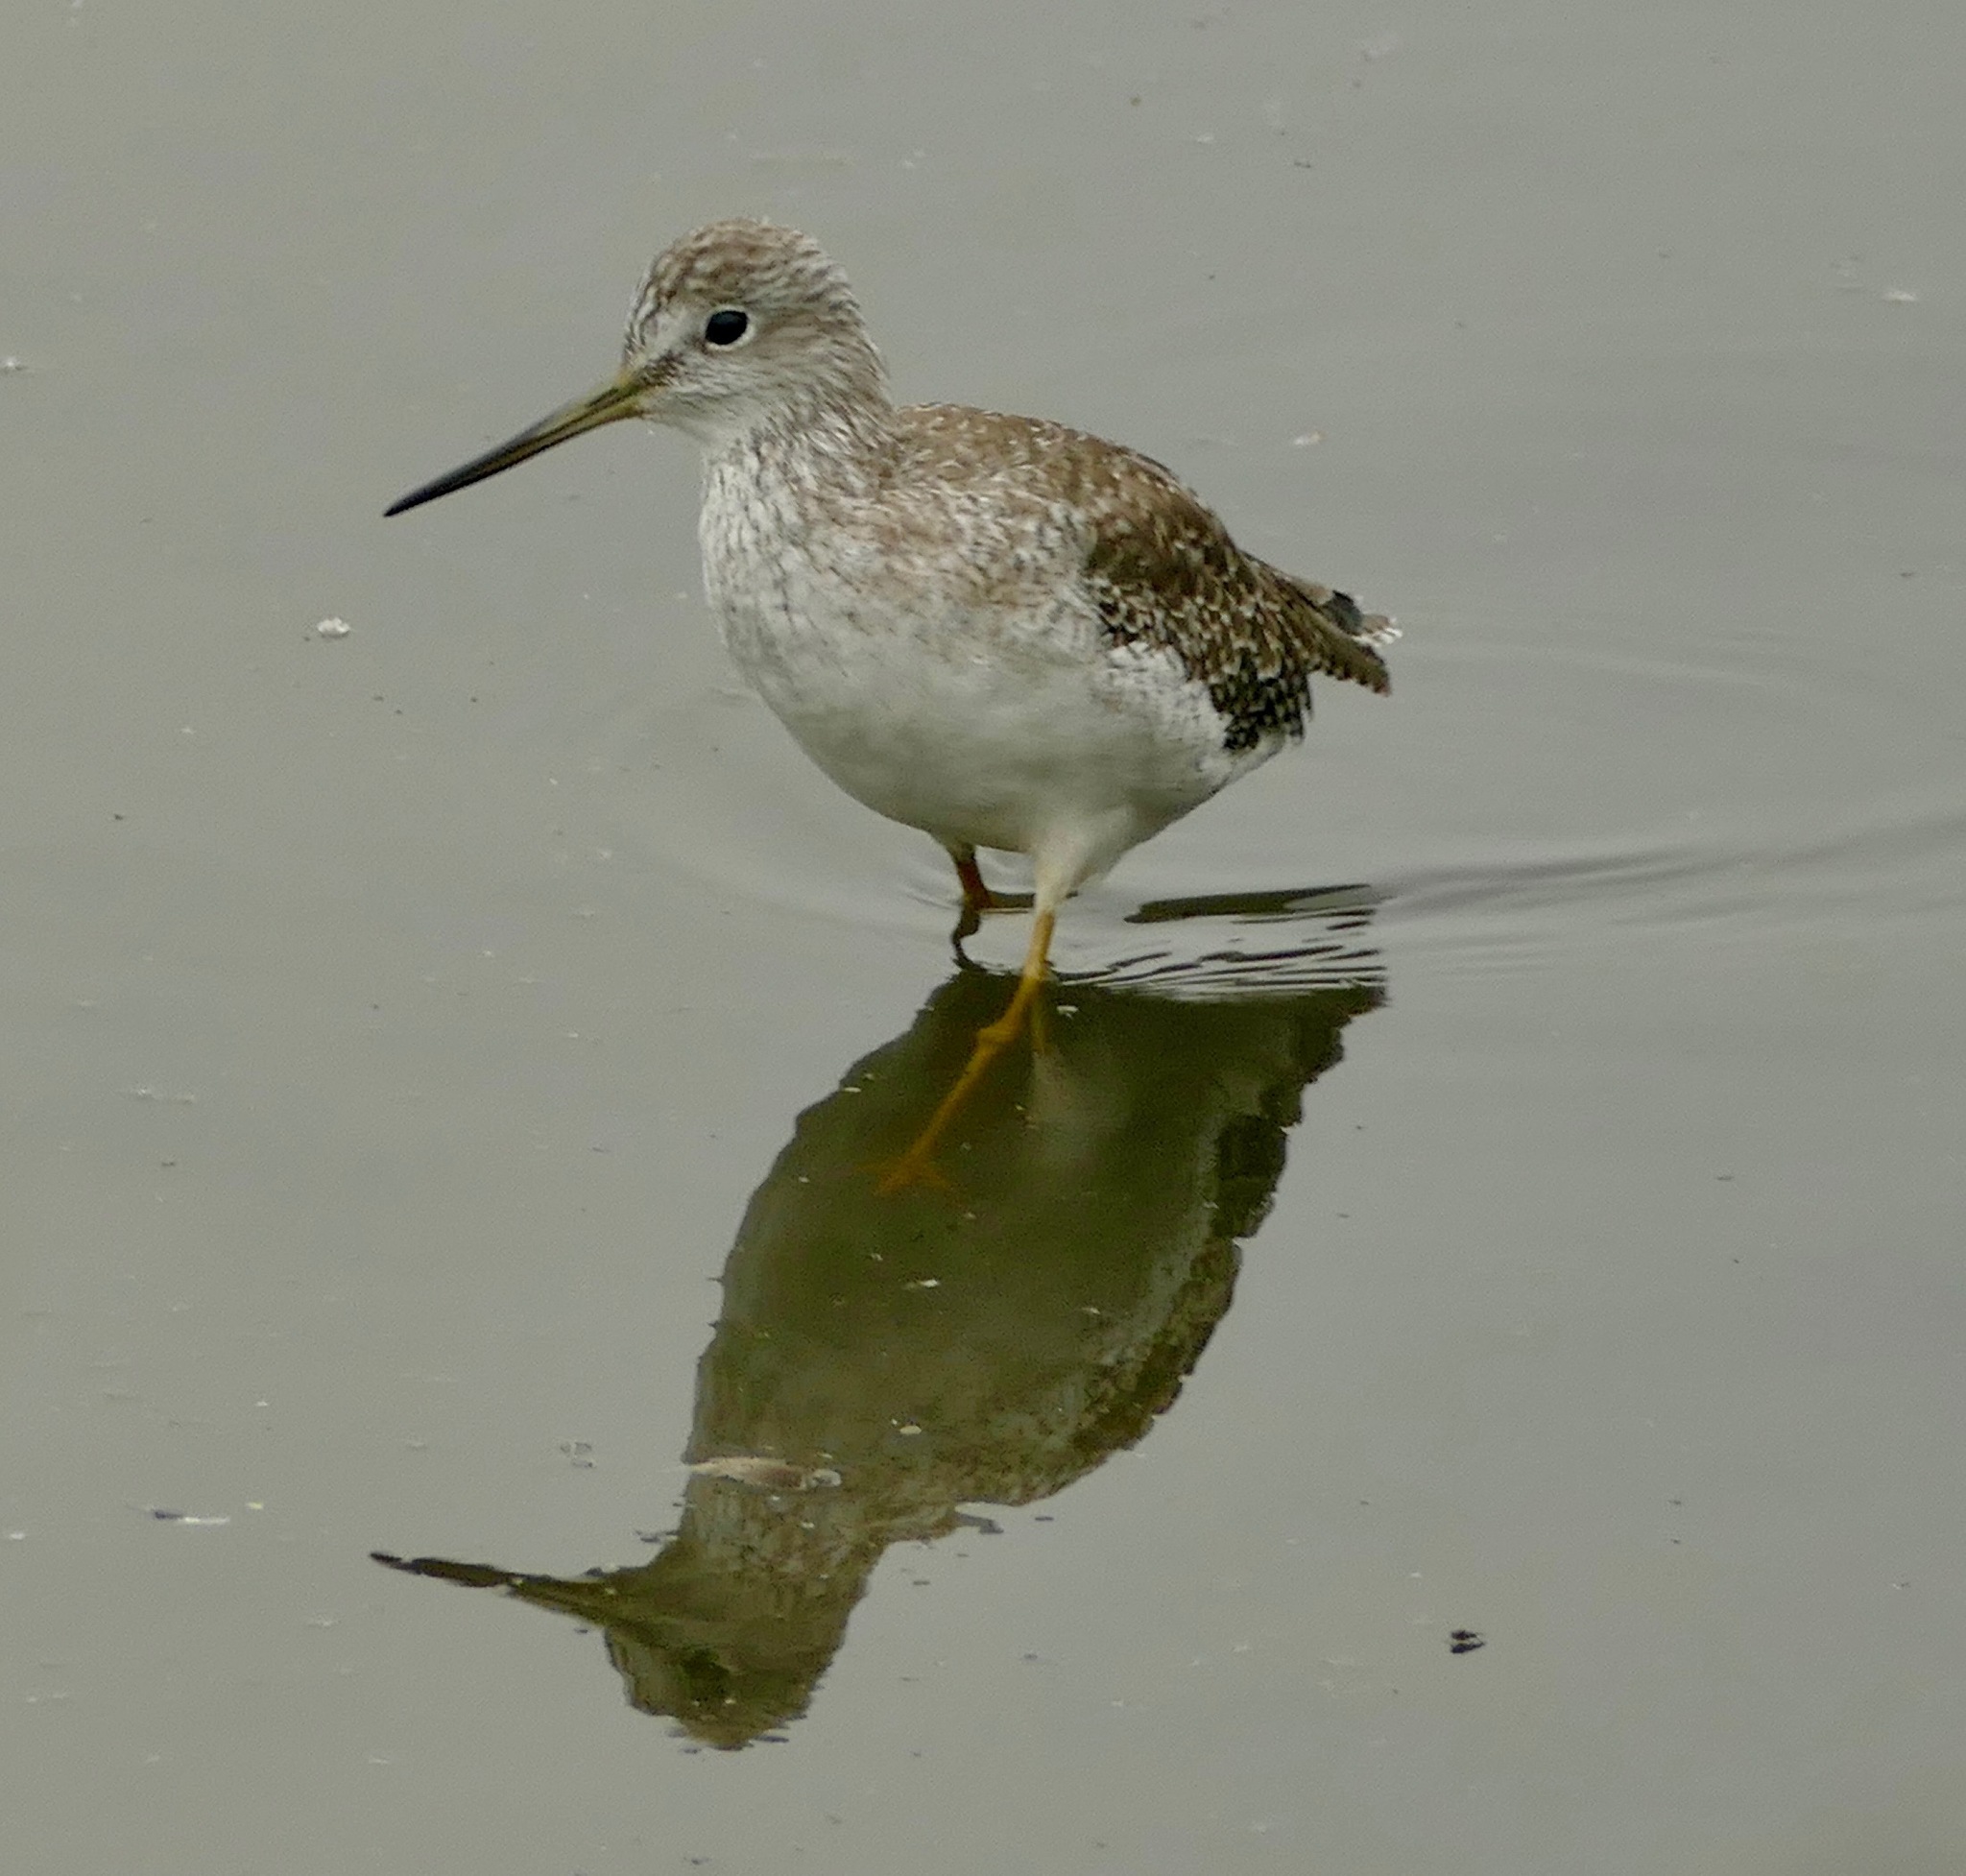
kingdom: Animalia
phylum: Chordata
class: Aves
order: Charadriiformes
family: Scolopacidae
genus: Tringa
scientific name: Tringa melanoleuca
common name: Greater yellowlegs
